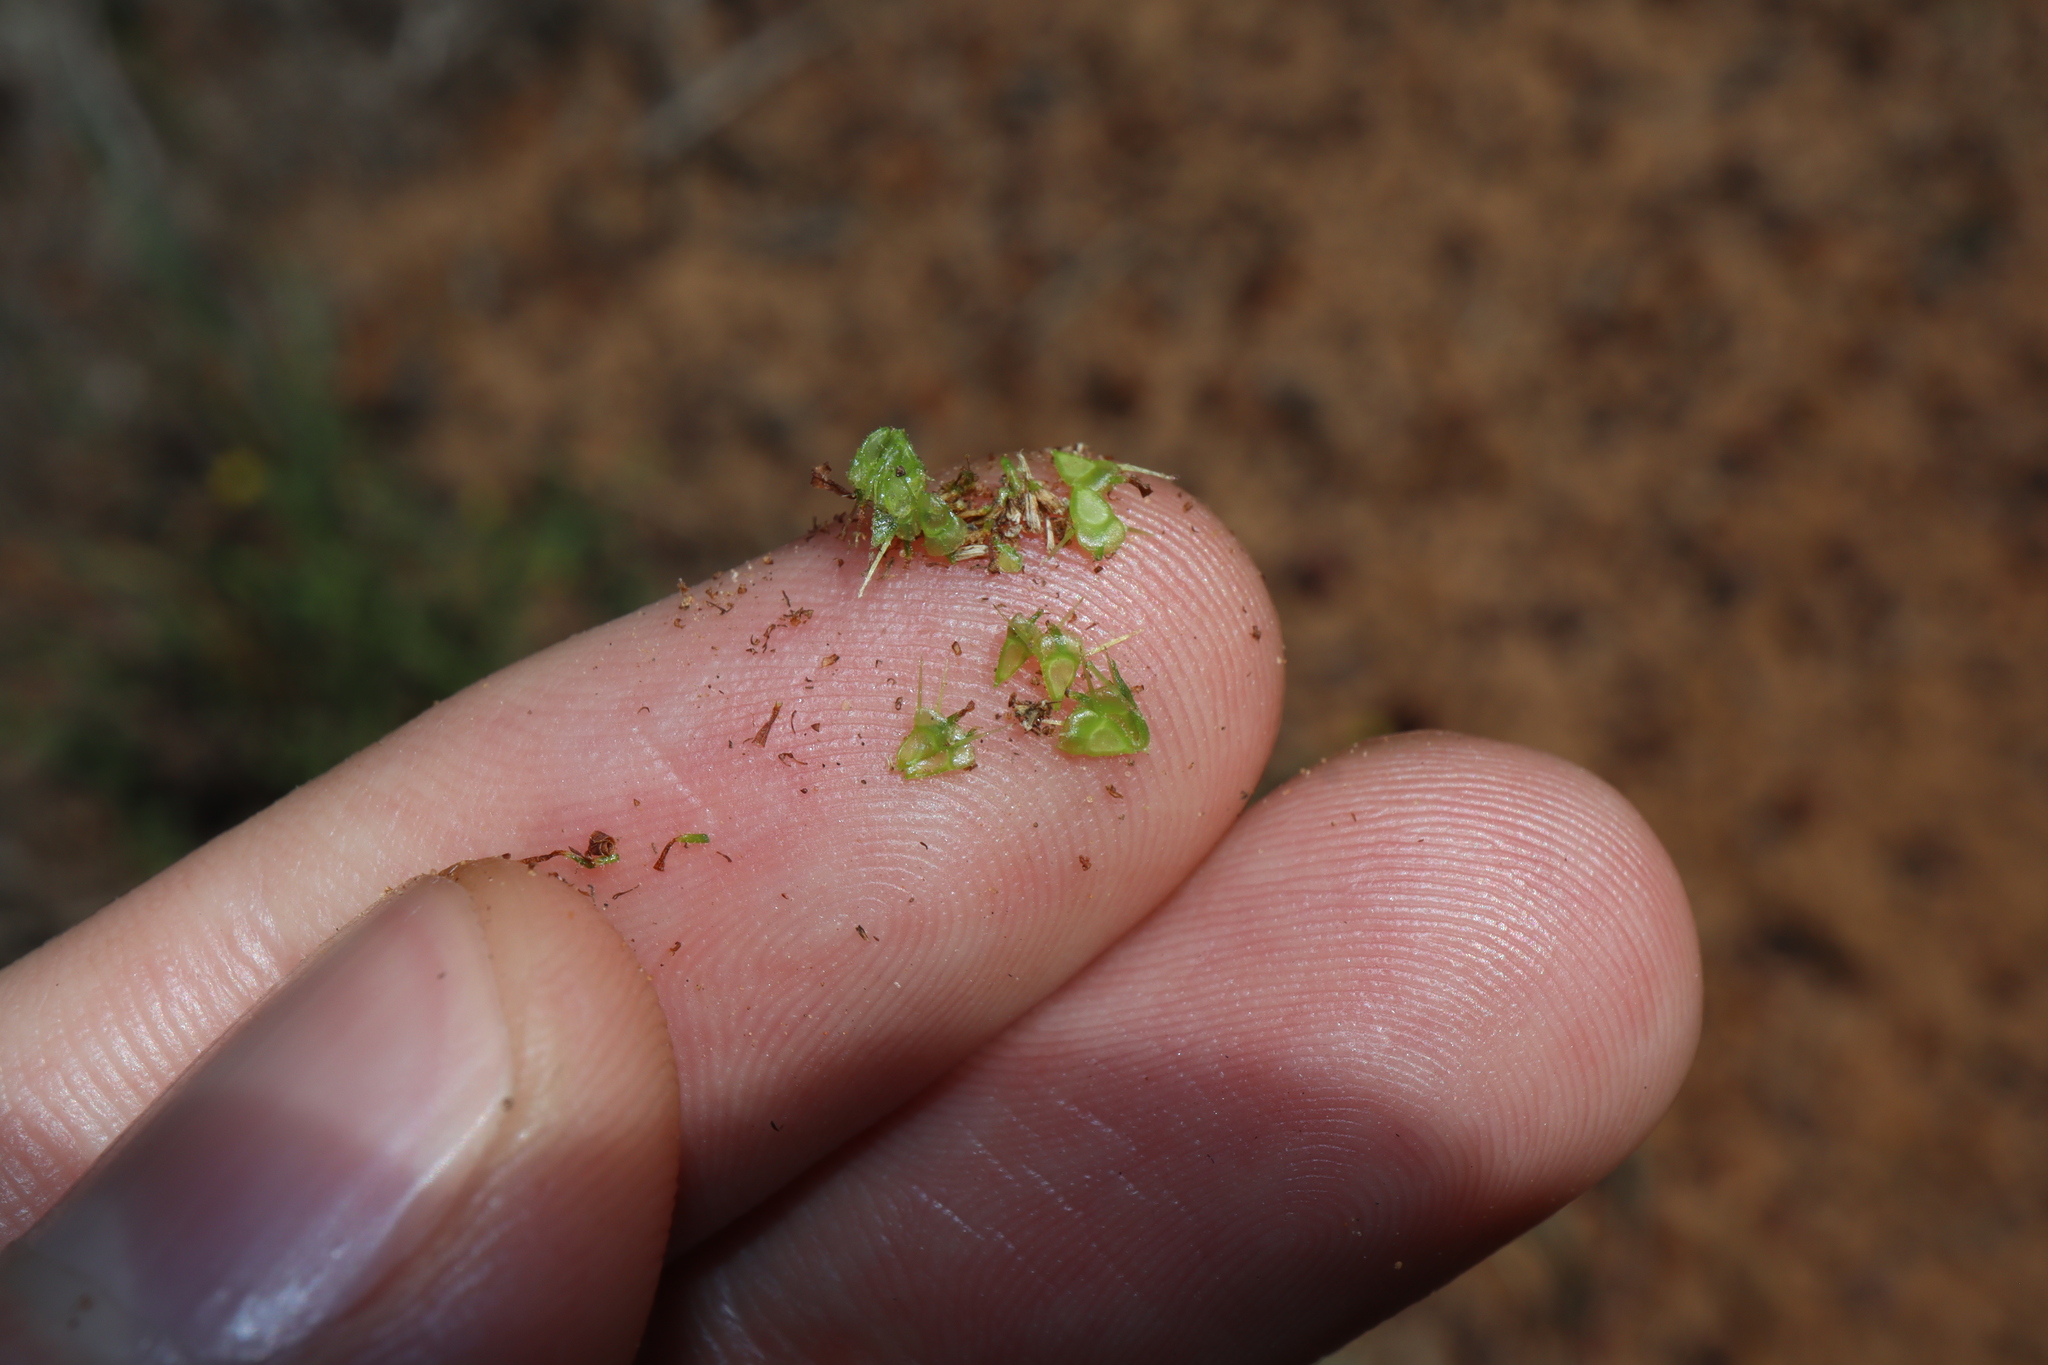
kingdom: Plantae
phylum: Tracheophyta
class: Magnoliopsida
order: Asterales
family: Asteraceae
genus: Calotis
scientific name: Calotis cuneifolia
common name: Bur-daisy
